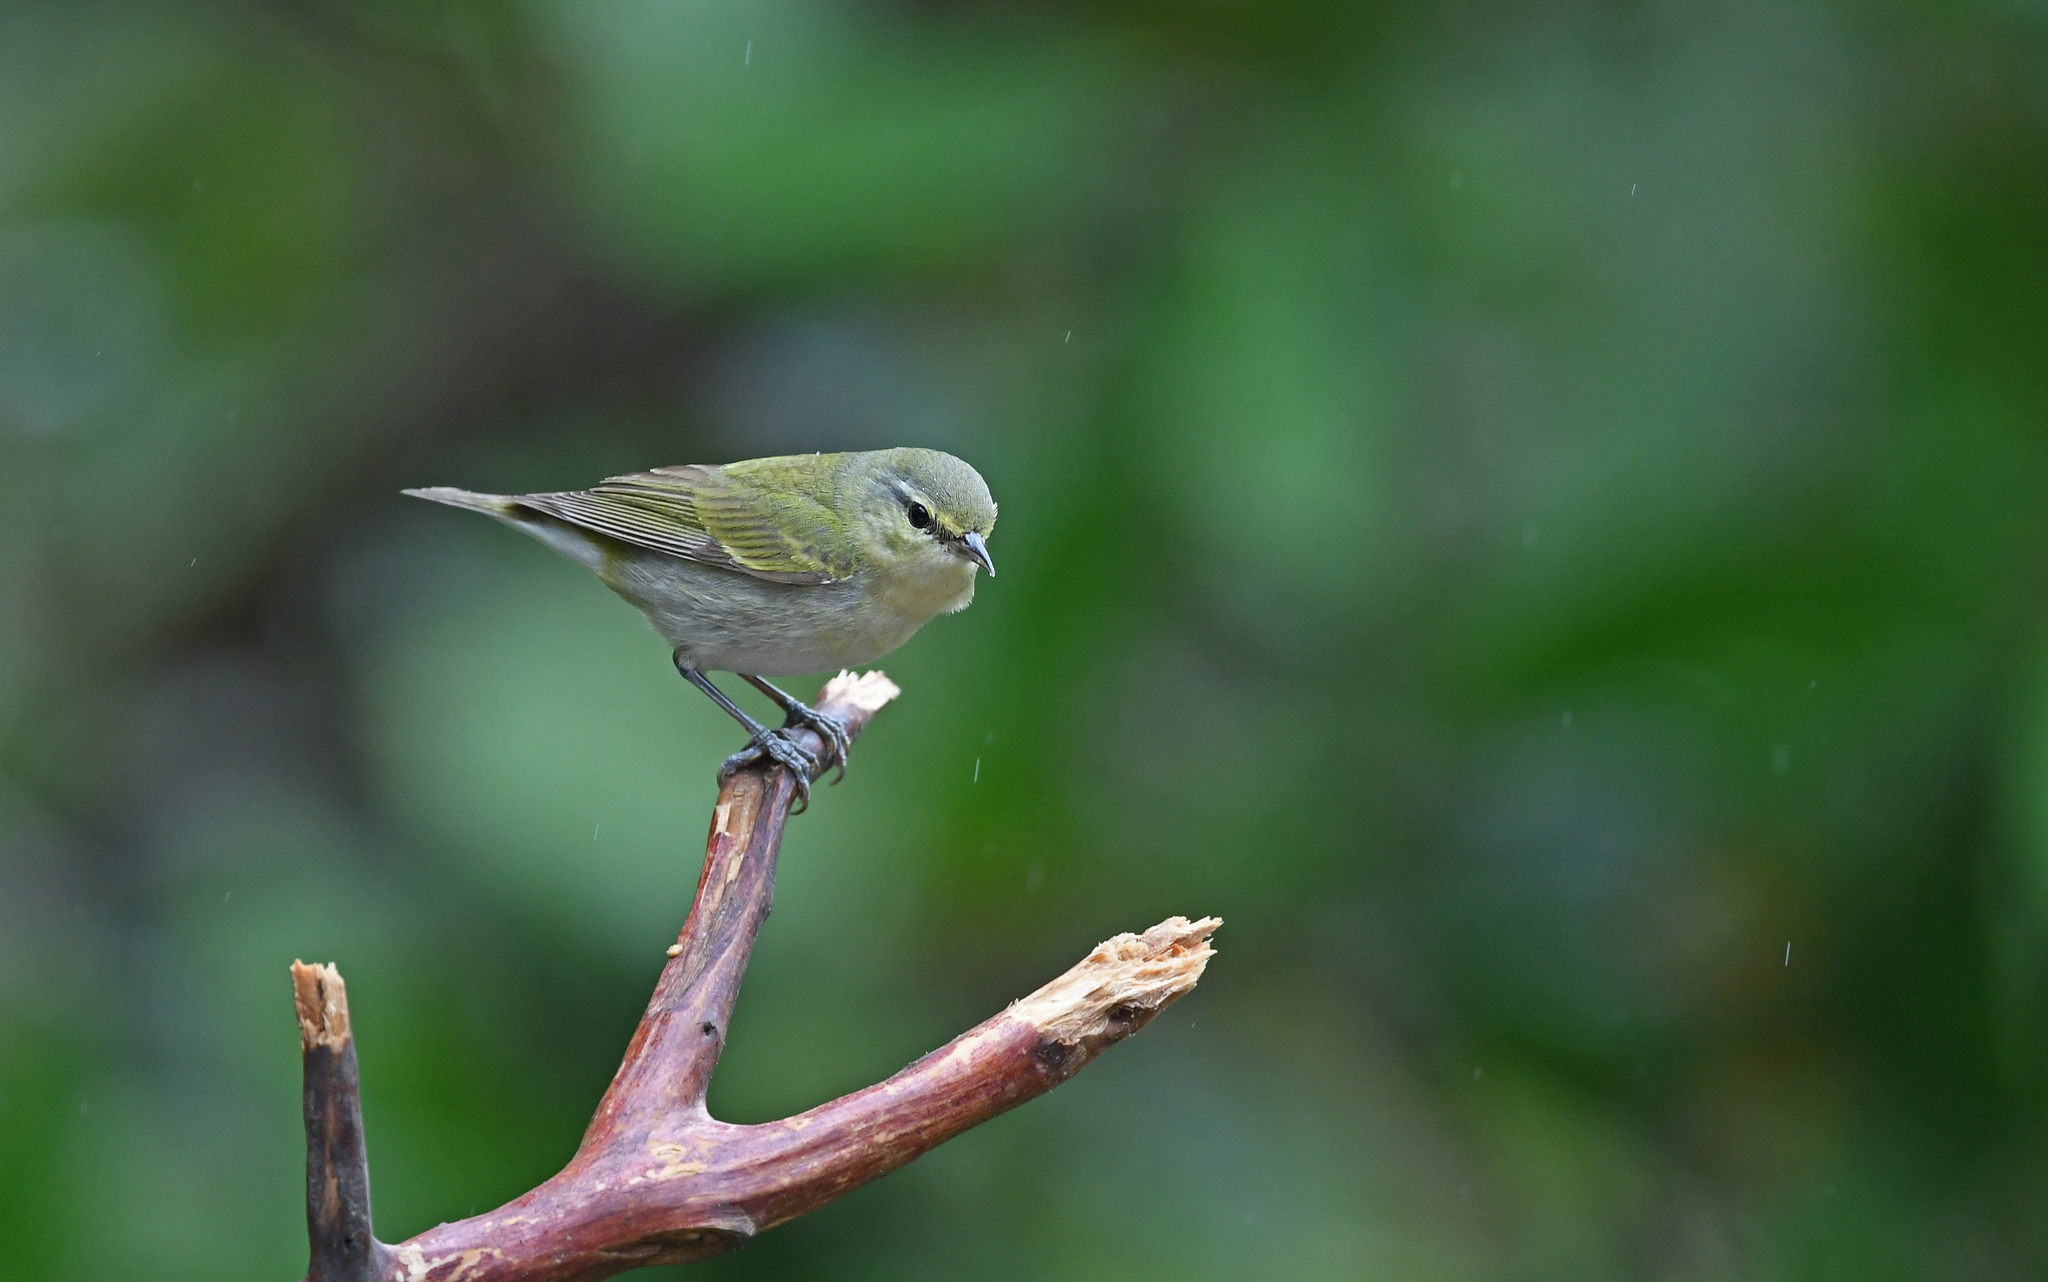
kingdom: Animalia
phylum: Chordata
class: Aves
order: Passeriformes
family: Parulidae
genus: Leiothlypis
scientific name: Leiothlypis peregrina
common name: Tennessee warbler
